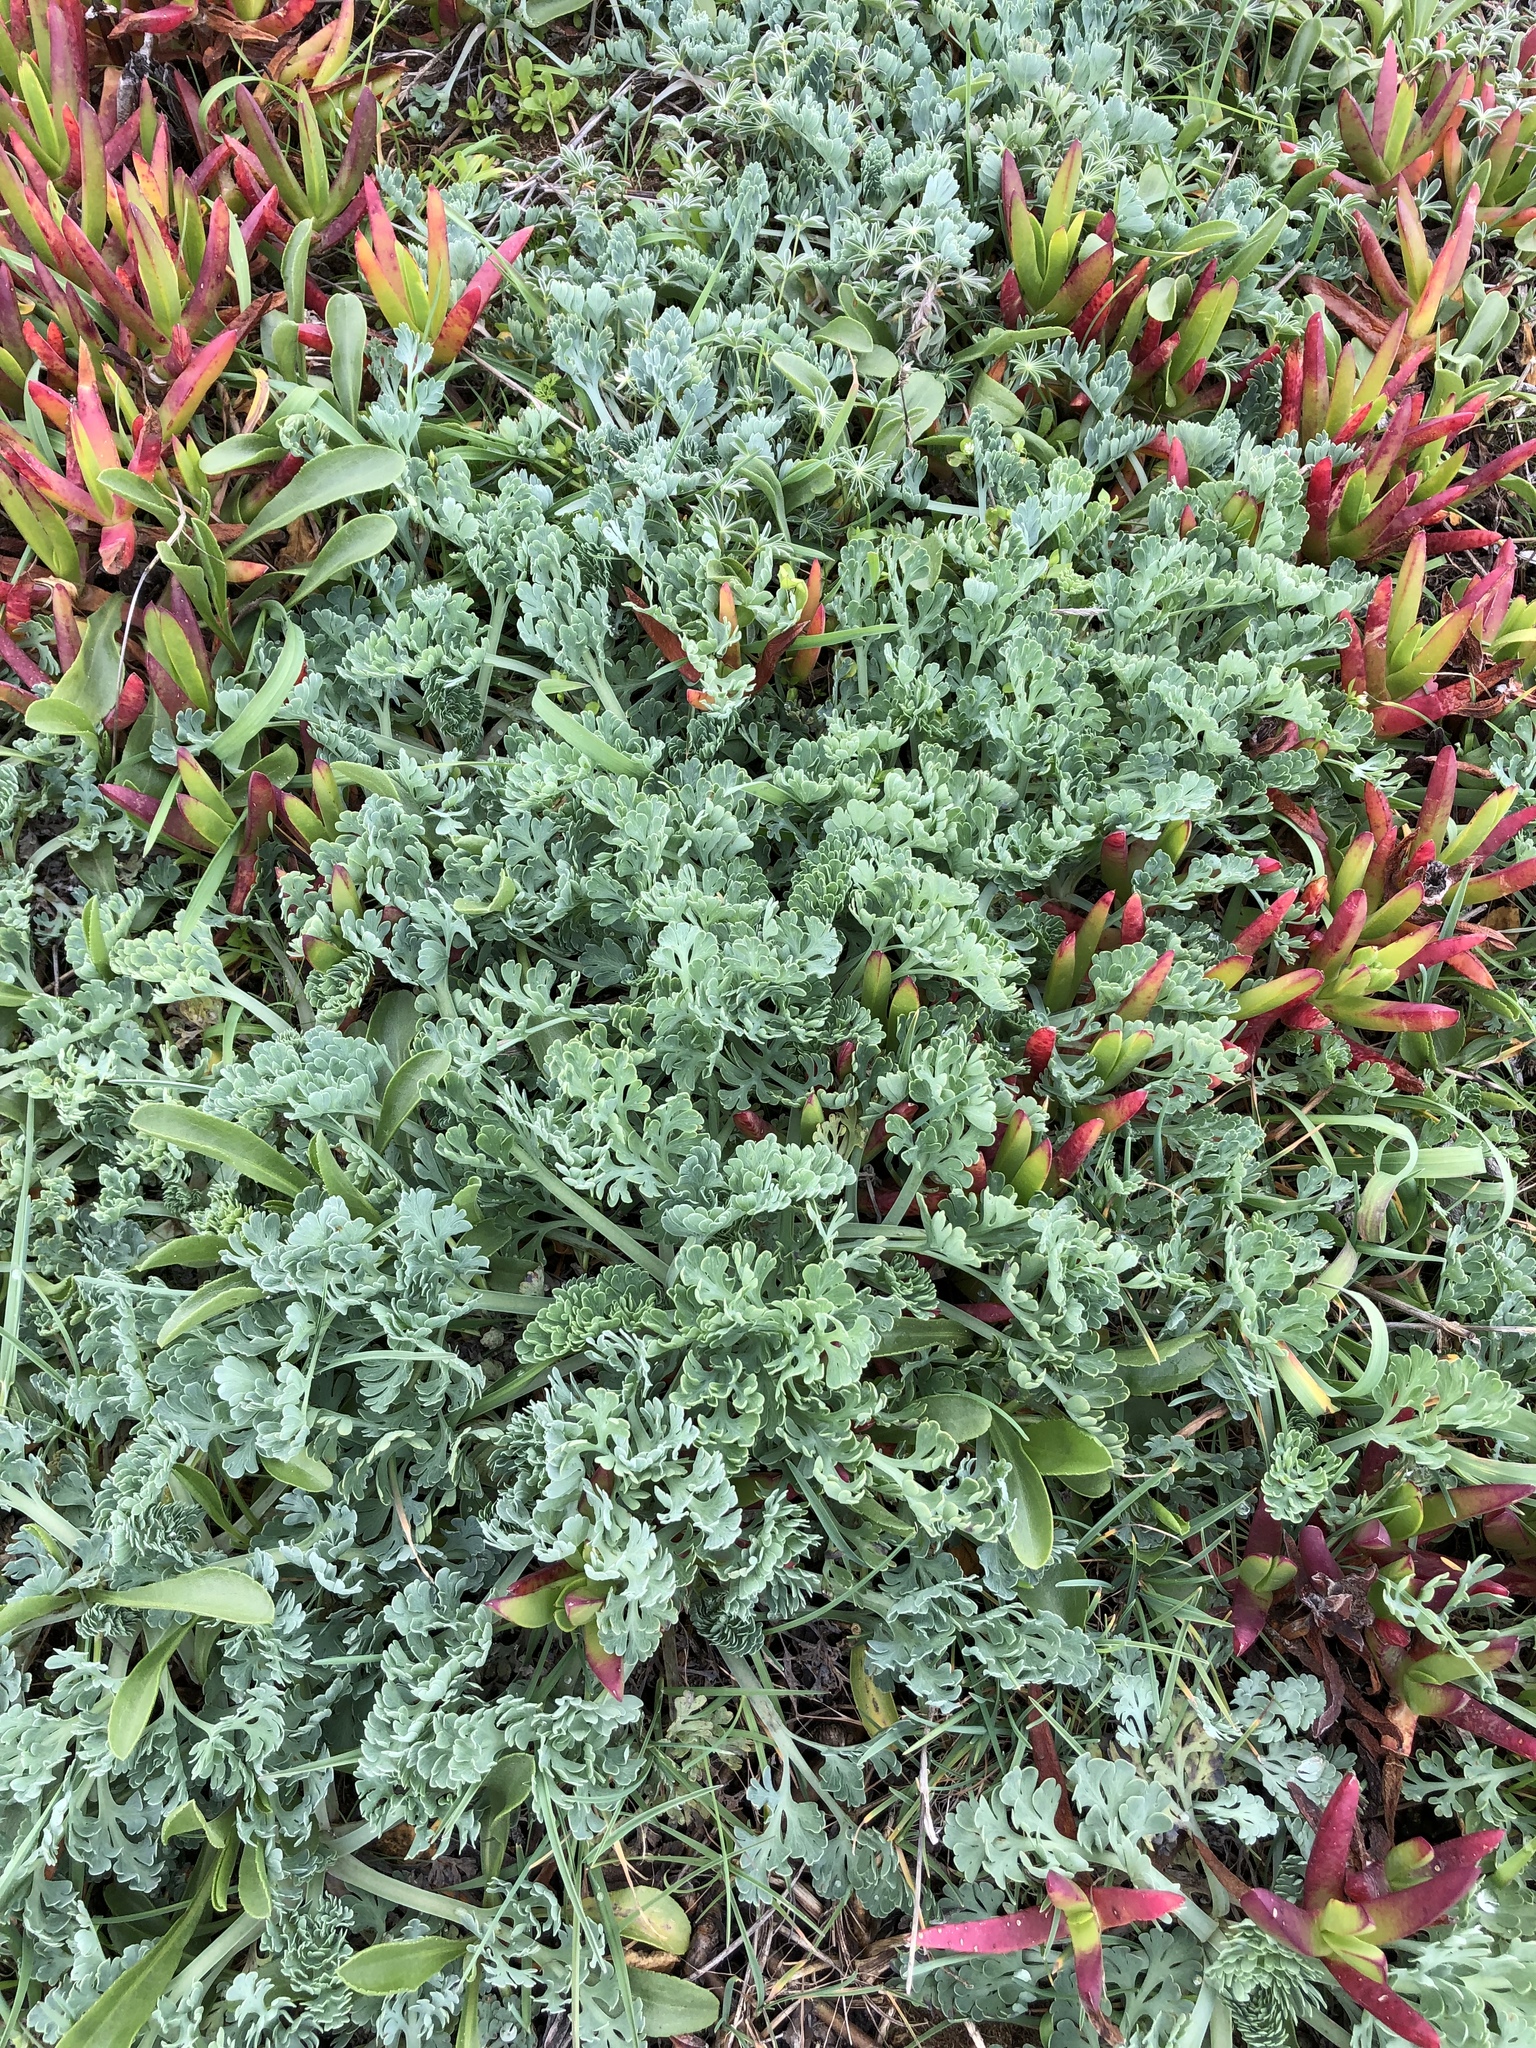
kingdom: Plantae
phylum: Tracheophyta
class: Magnoliopsida
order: Ranunculales
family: Papaveraceae
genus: Eschscholzia
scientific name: Eschscholzia californica
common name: California poppy
